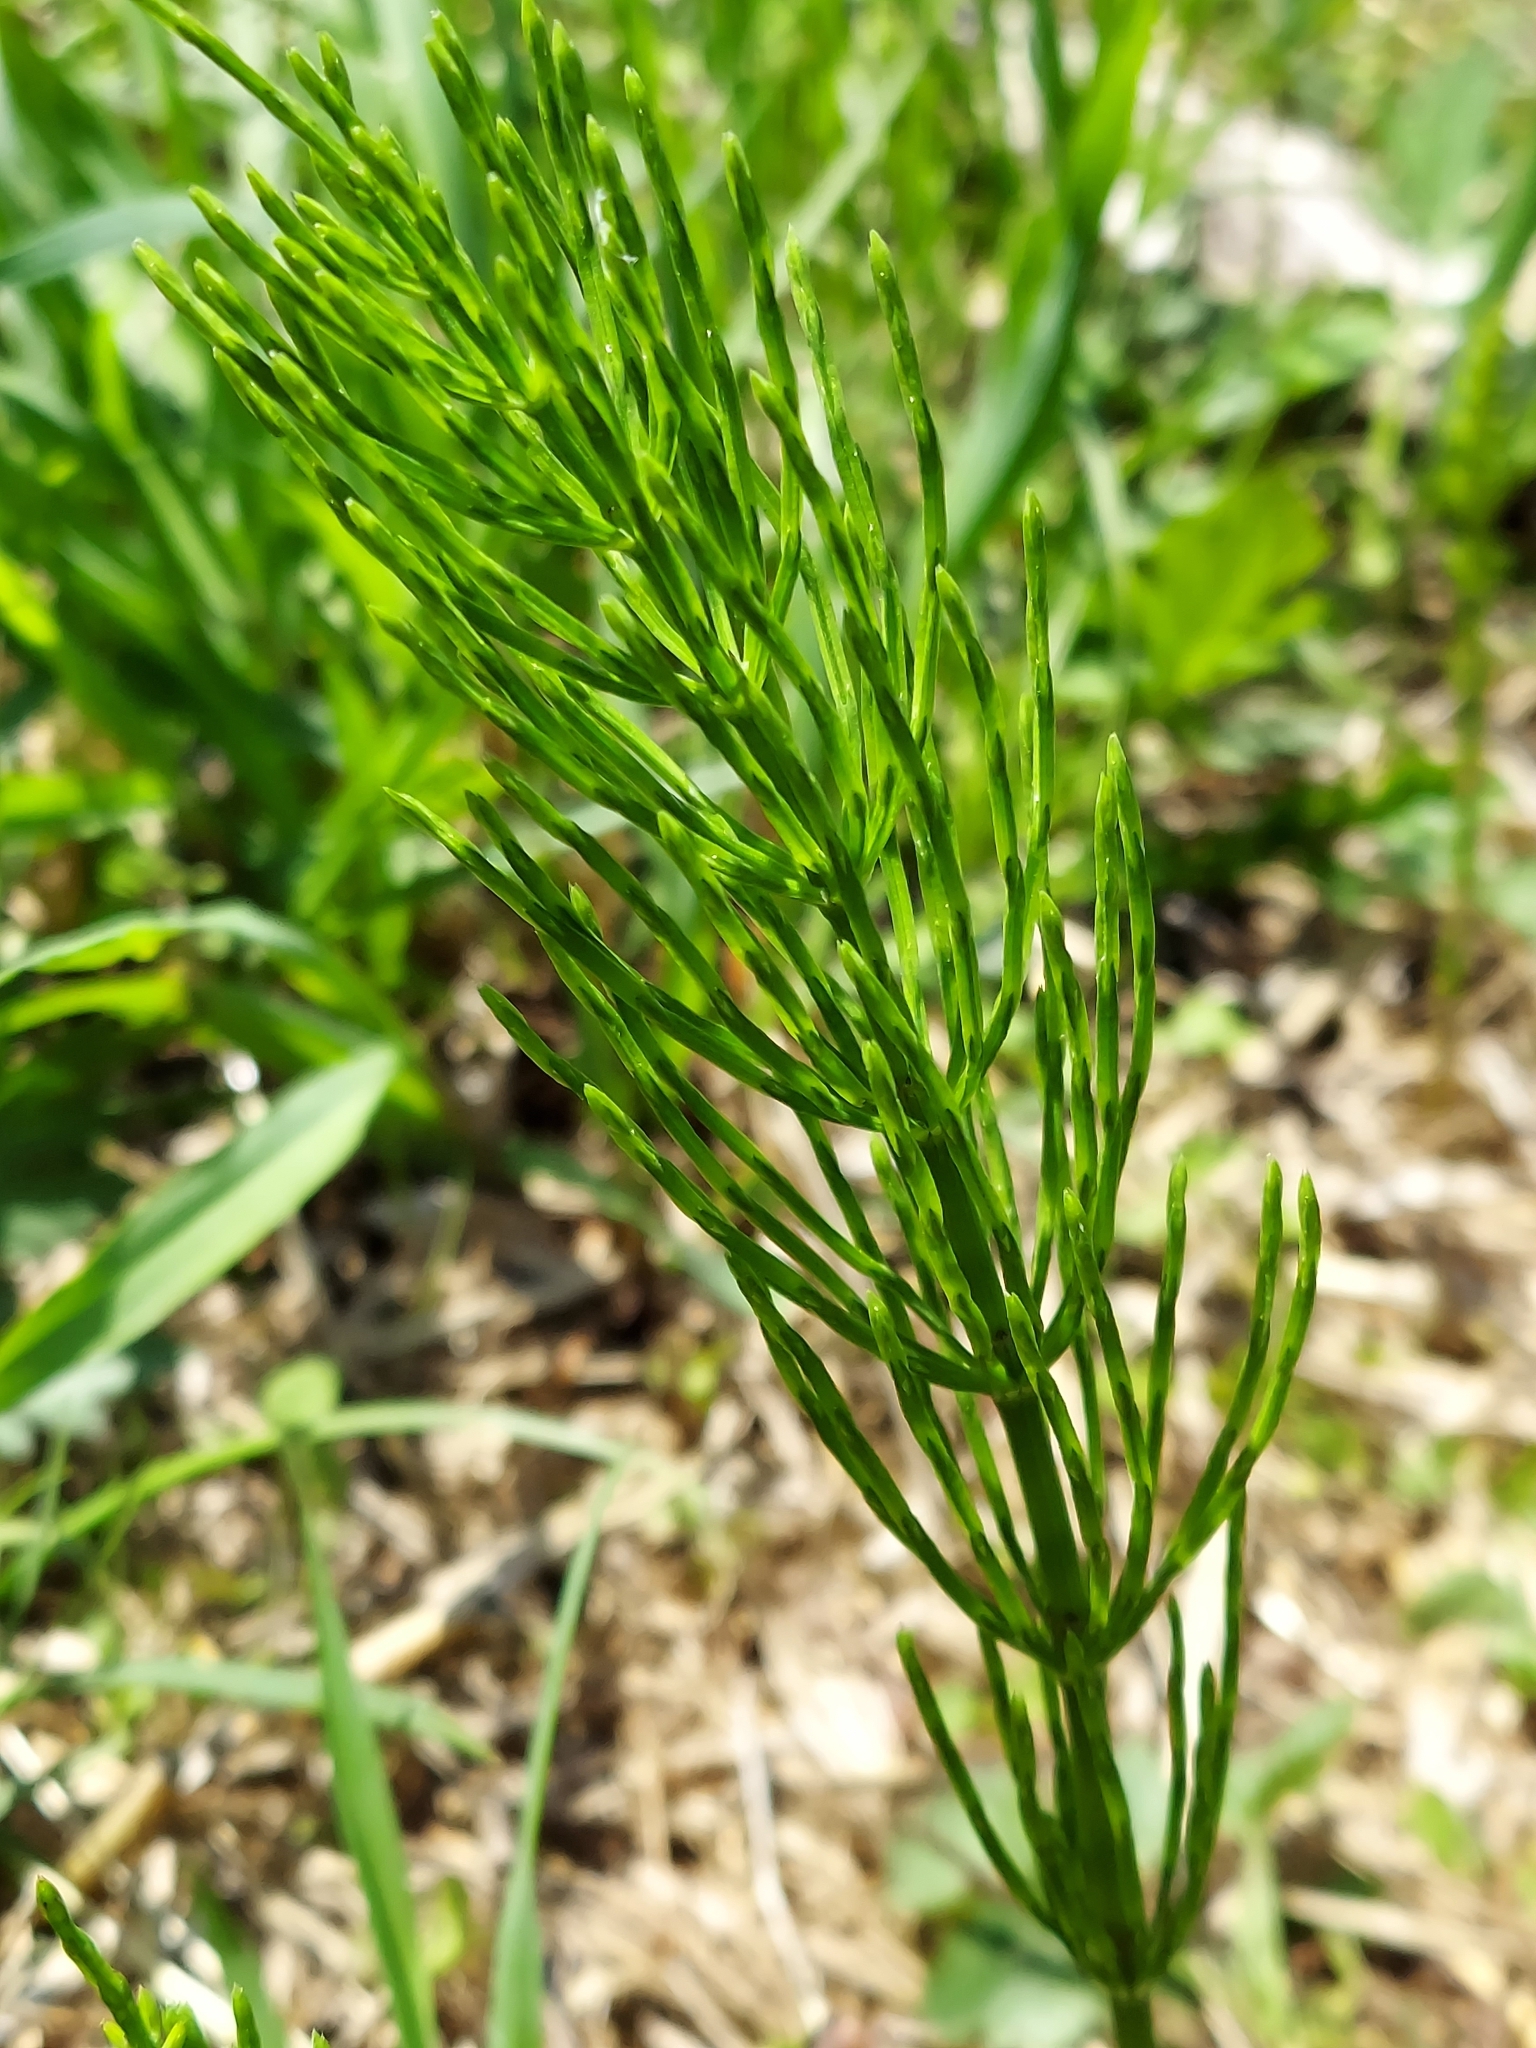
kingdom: Plantae
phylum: Tracheophyta
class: Polypodiopsida
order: Equisetales
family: Equisetaceae
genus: Equisetum
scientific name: Equisetum arvense
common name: Field horsetail
